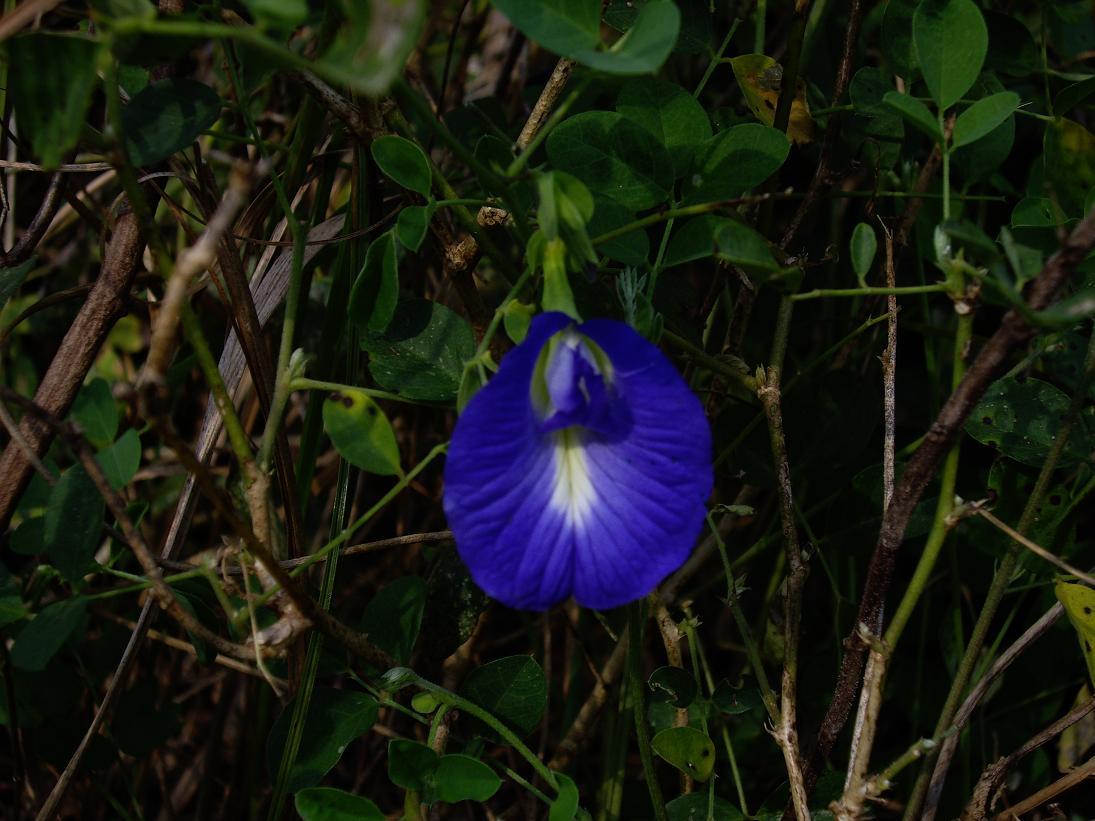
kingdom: Plantae
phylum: Tracheophyta
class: Magnoliopsida
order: Fabales
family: Fabaceae
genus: Clitoria
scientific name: Clitoria ternatea
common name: Asian pigeonwings
